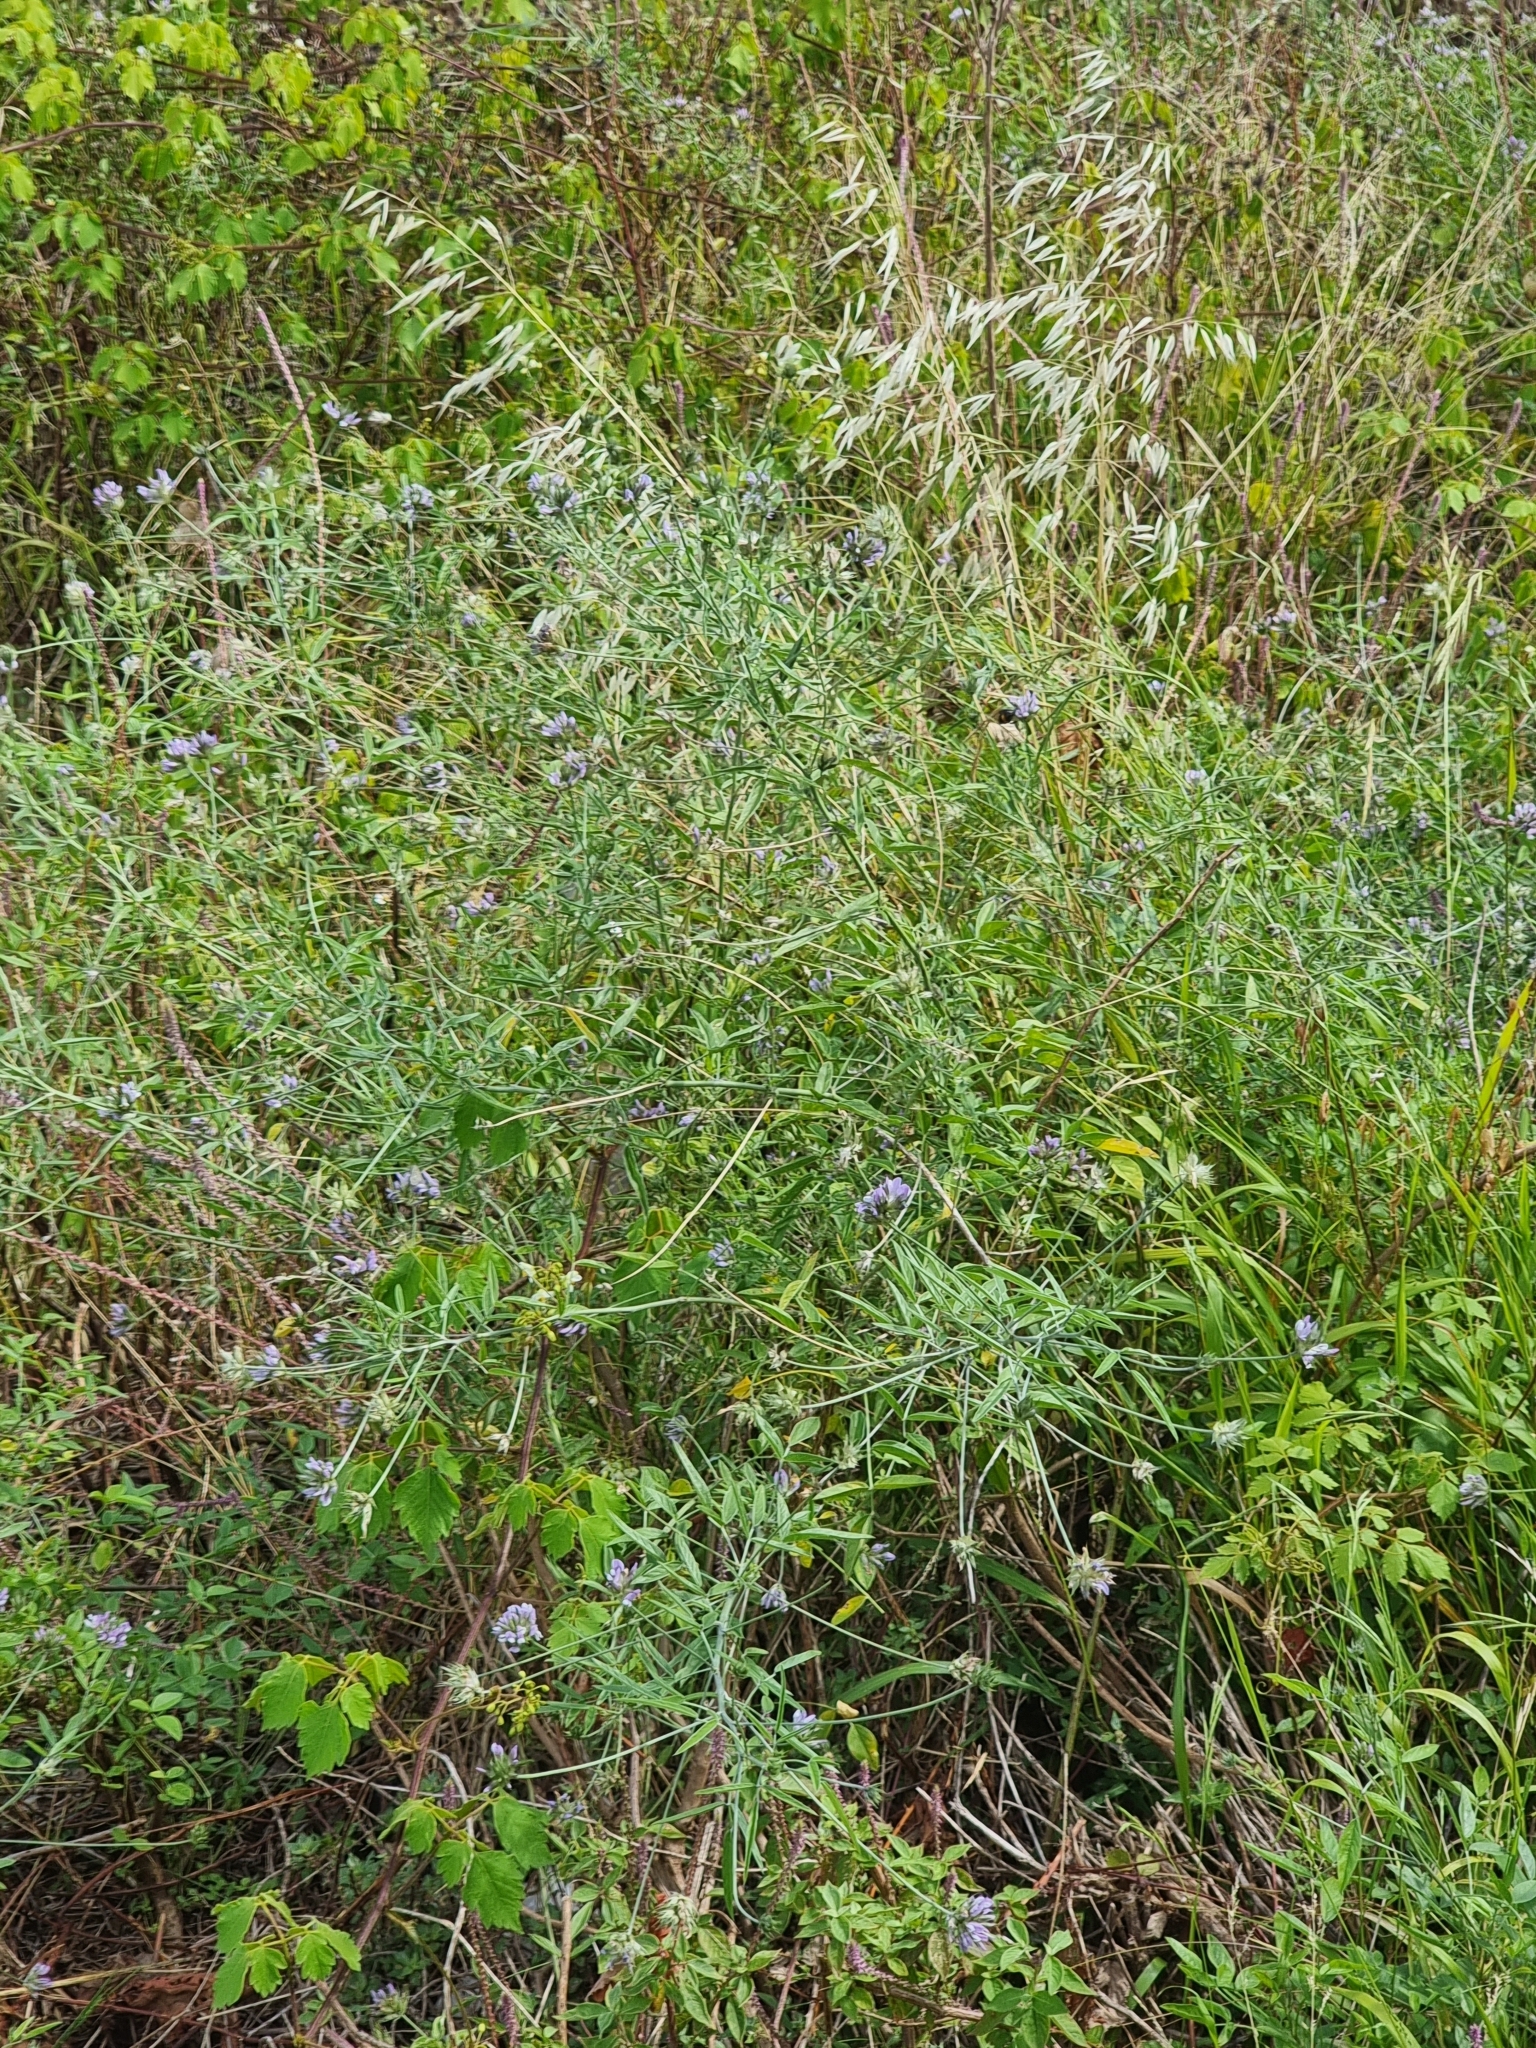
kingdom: Plantae
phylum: Tracheophyta
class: Magnoliopsida
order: Fabales
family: Fabaceae
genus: Bituminaria
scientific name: Bituminaria bituminosa
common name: Arabian pea
